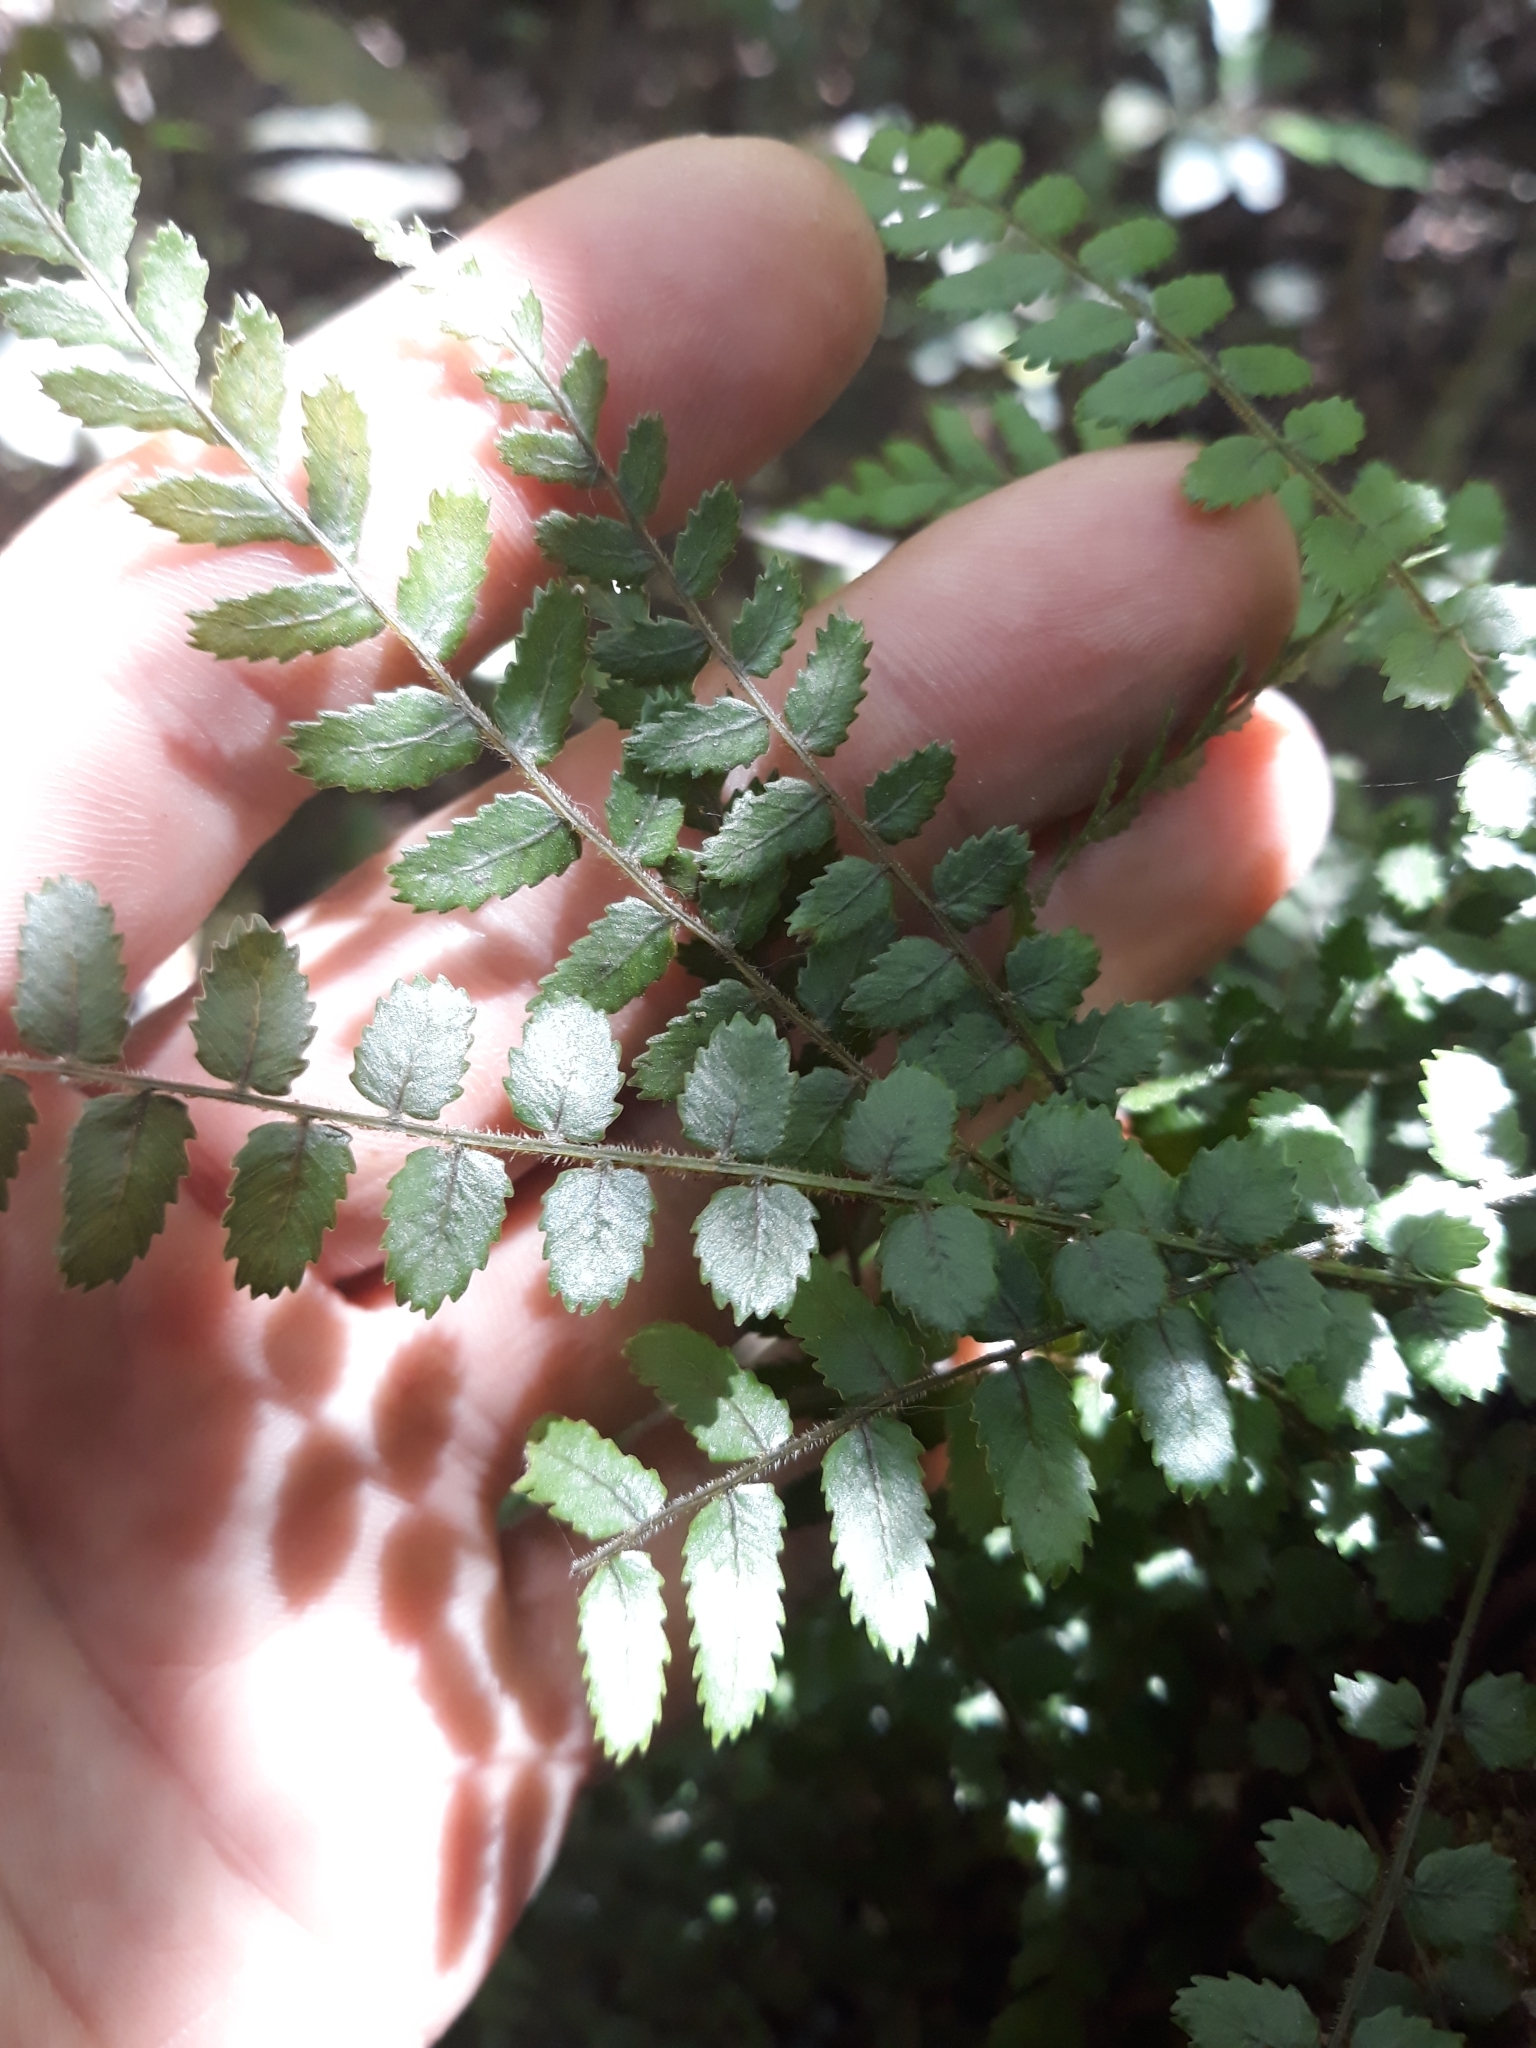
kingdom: Plantae
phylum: Tracheophyta
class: Polypodiopsida
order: Polypodiales
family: Blechnaceae
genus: Icarus
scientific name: Icarus filiformis
